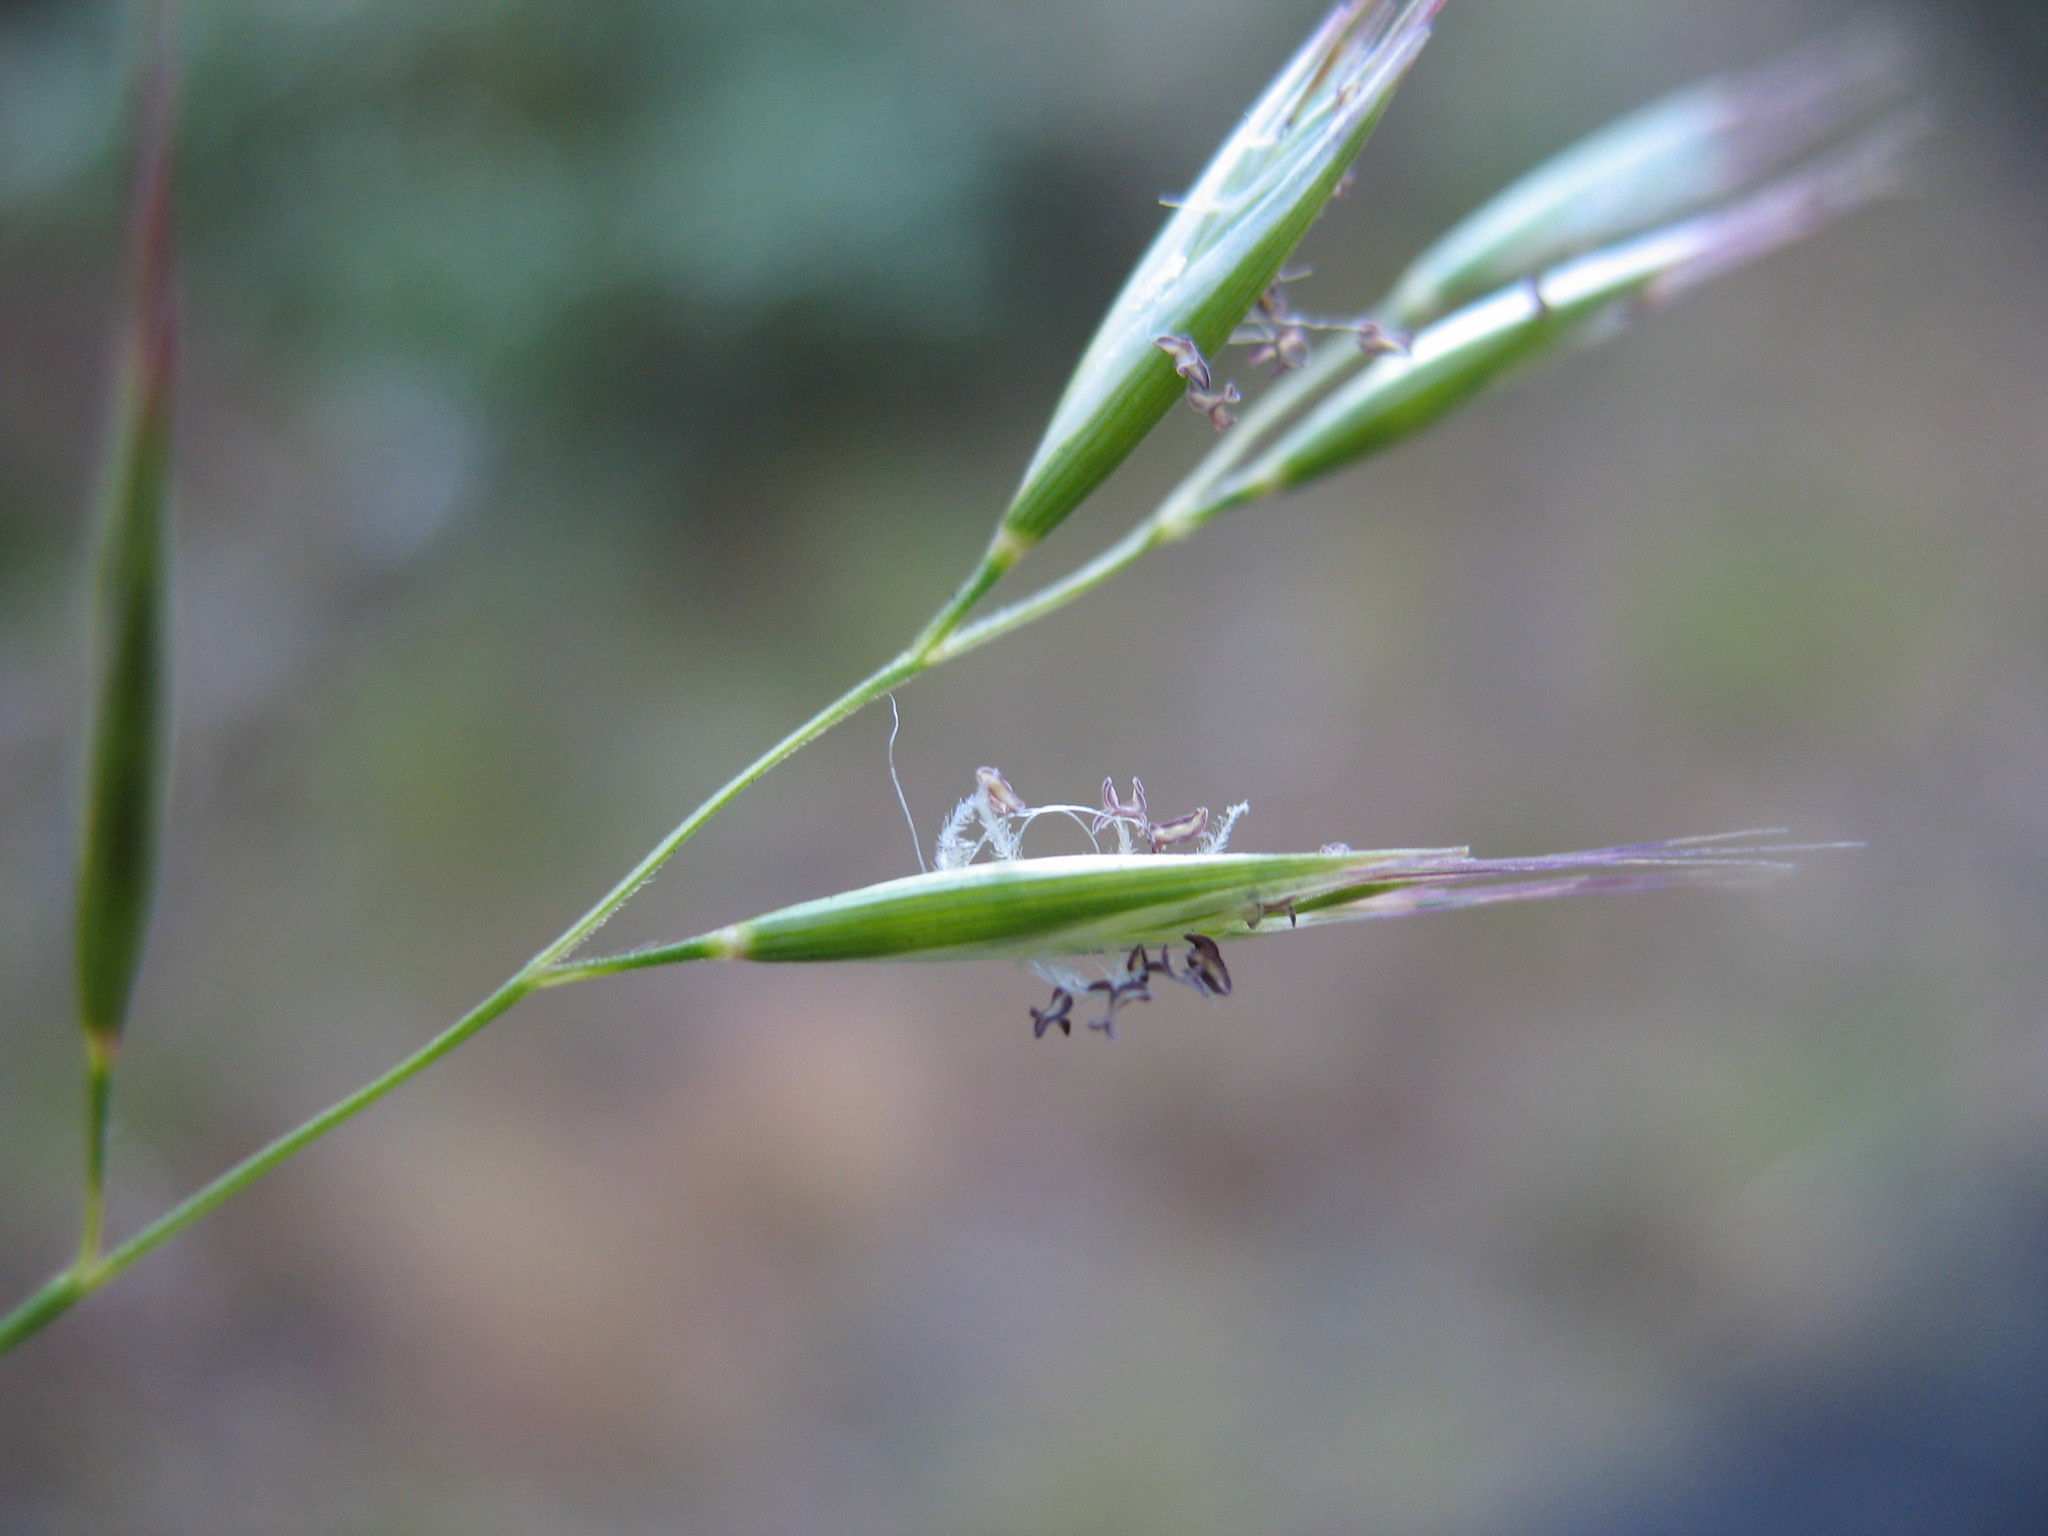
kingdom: Plantae
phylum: Tracheophyta
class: Liliopsida
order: Poales
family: Poaceae
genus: Rytidosperma
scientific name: Rytidosperma racemosum
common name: Wallaby-grass
